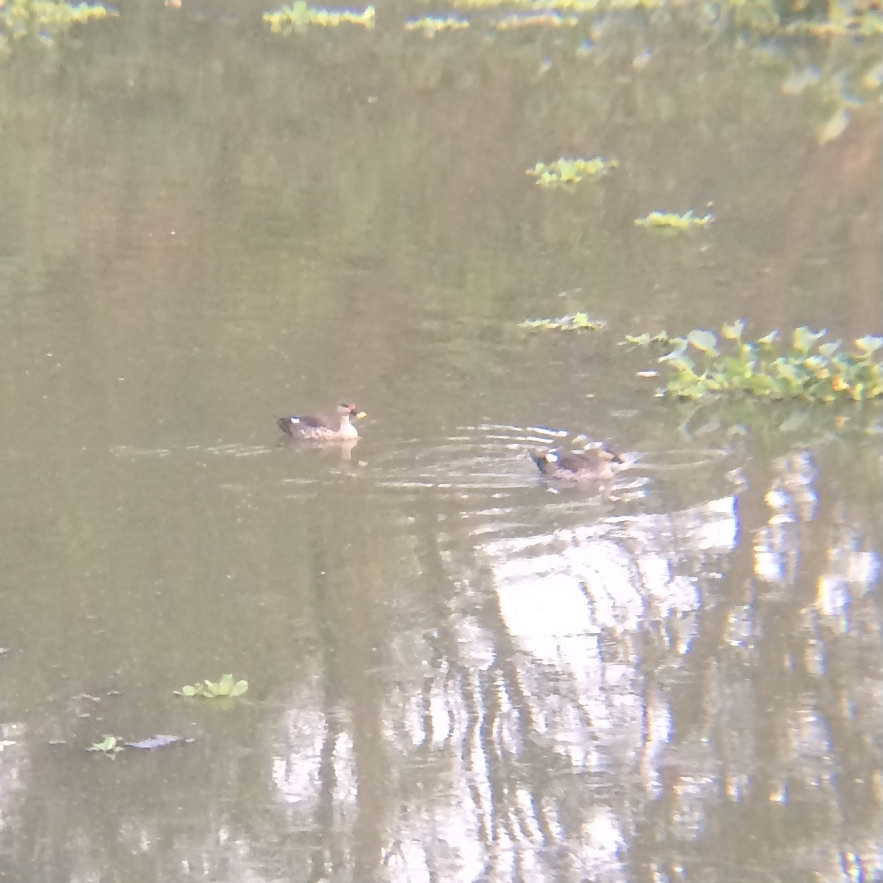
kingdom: Animalia
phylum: Chordata
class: Aves
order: Anseriformes
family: Anatidae
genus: Anas
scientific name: Anas poecilorhyncha
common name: Indian spot-billed duck
